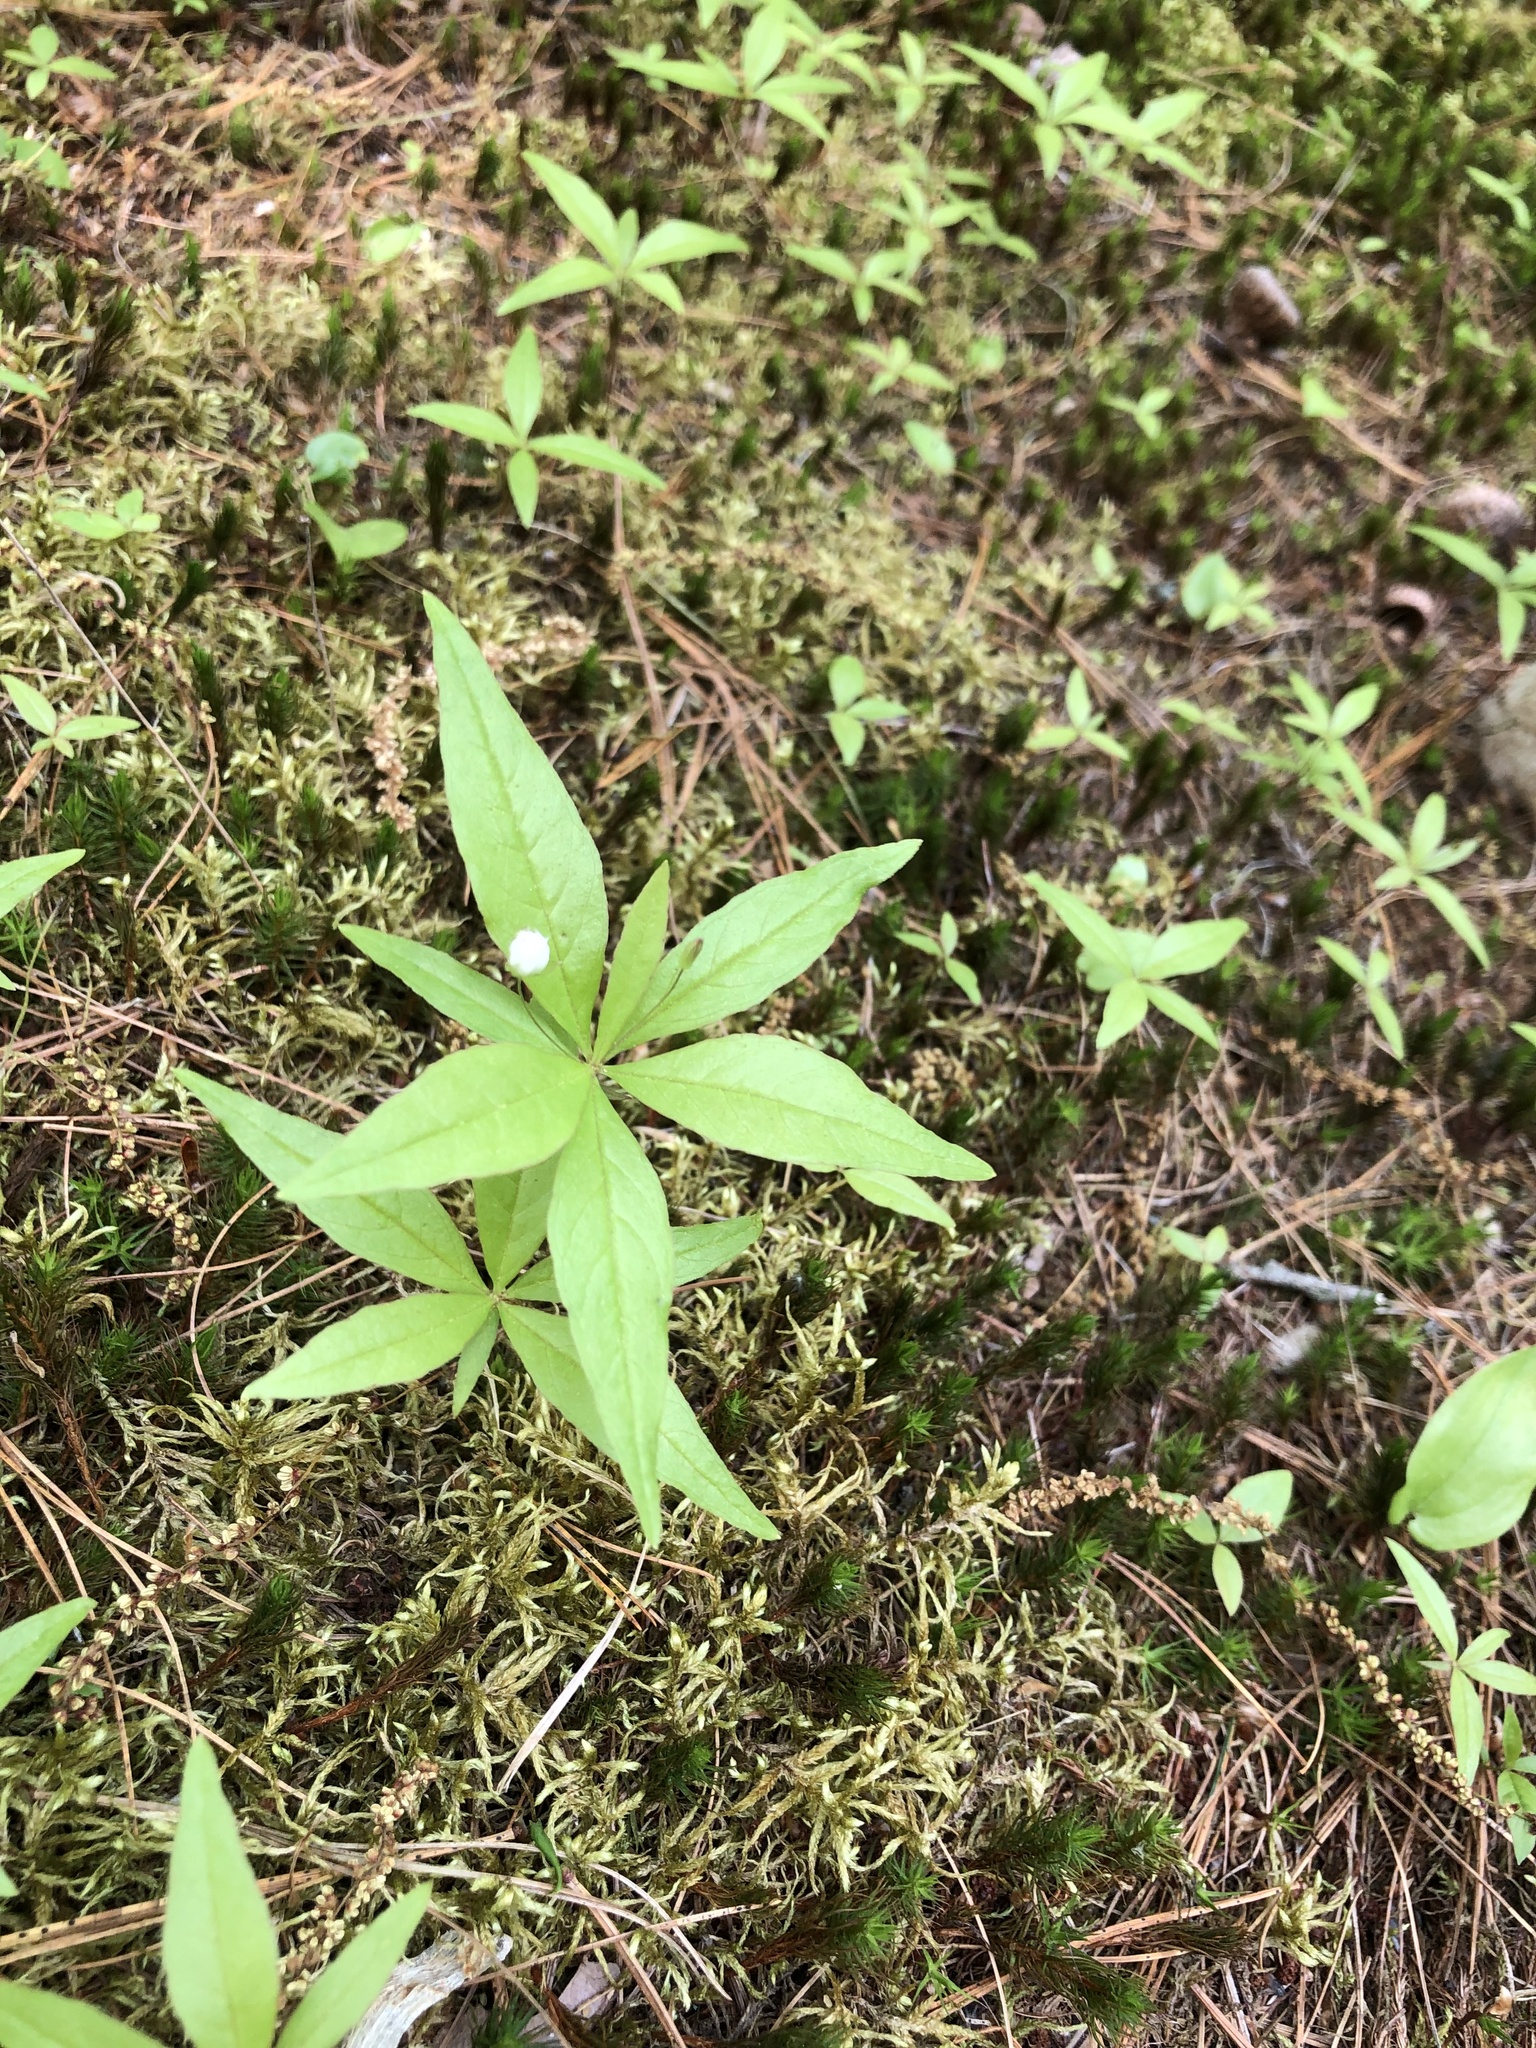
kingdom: Plantae
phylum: Tracheophyta
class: Magnoliopsida
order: Ericales
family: Primulaceae
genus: Lysimachia
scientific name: Lysimachia borealis
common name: American starflower
